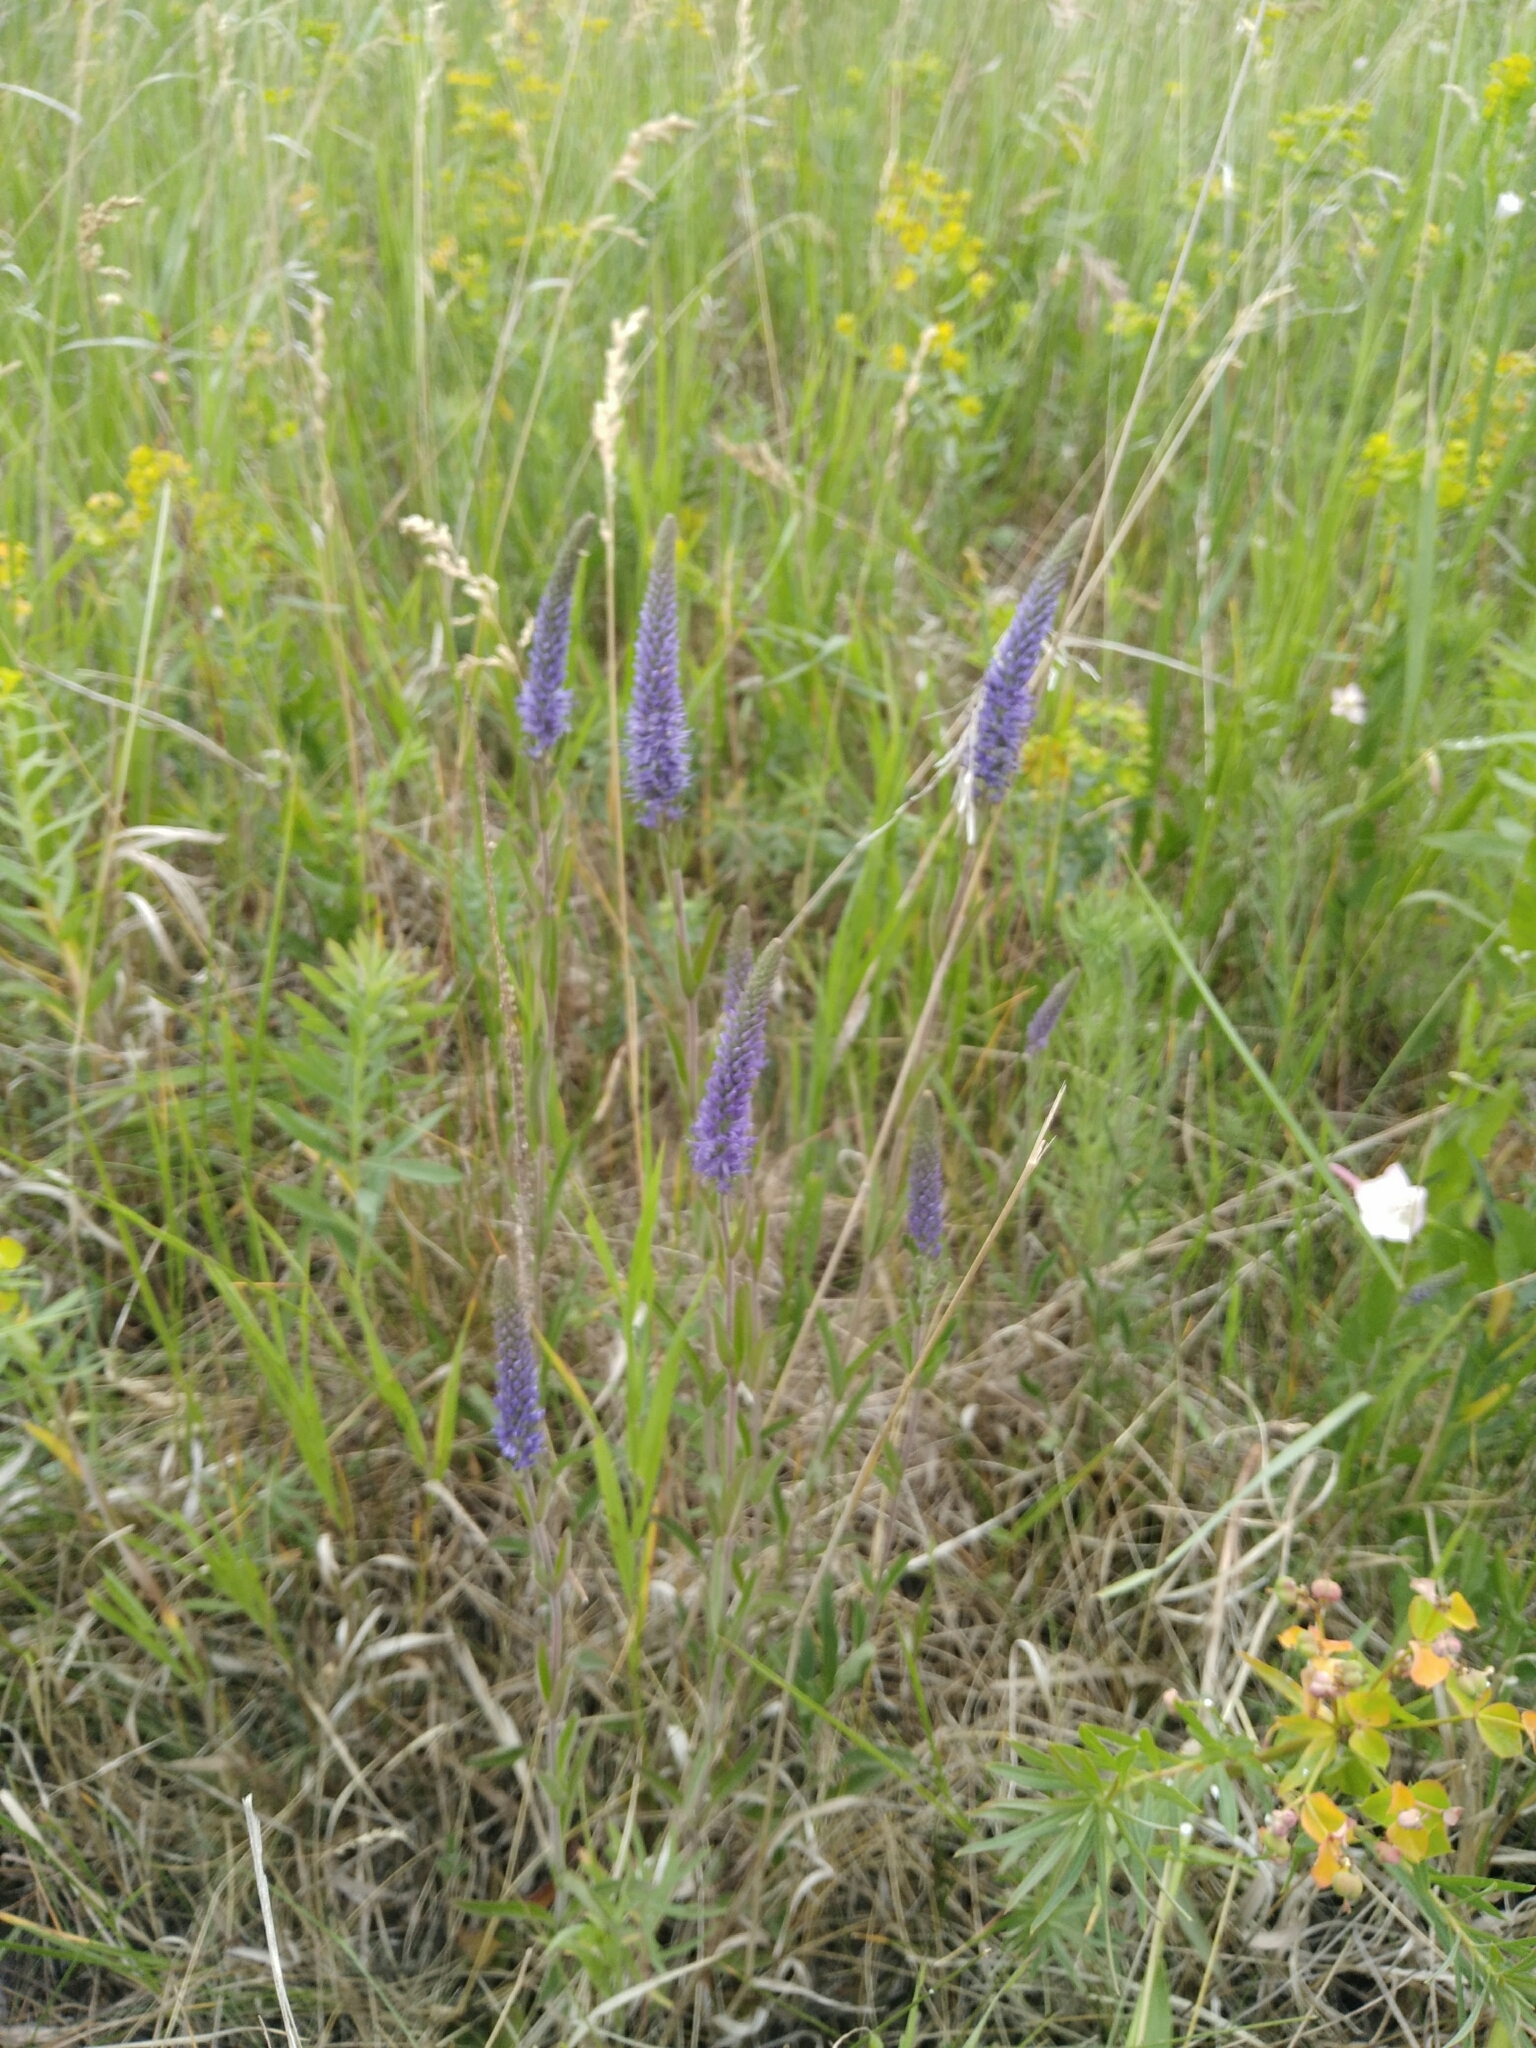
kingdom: Plantae
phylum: Tracheophyta
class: Magnoliopsida
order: Lamiales
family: Plantaginaceae
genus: Veronica
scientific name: Veronica spicata
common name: Spiked speedwell
